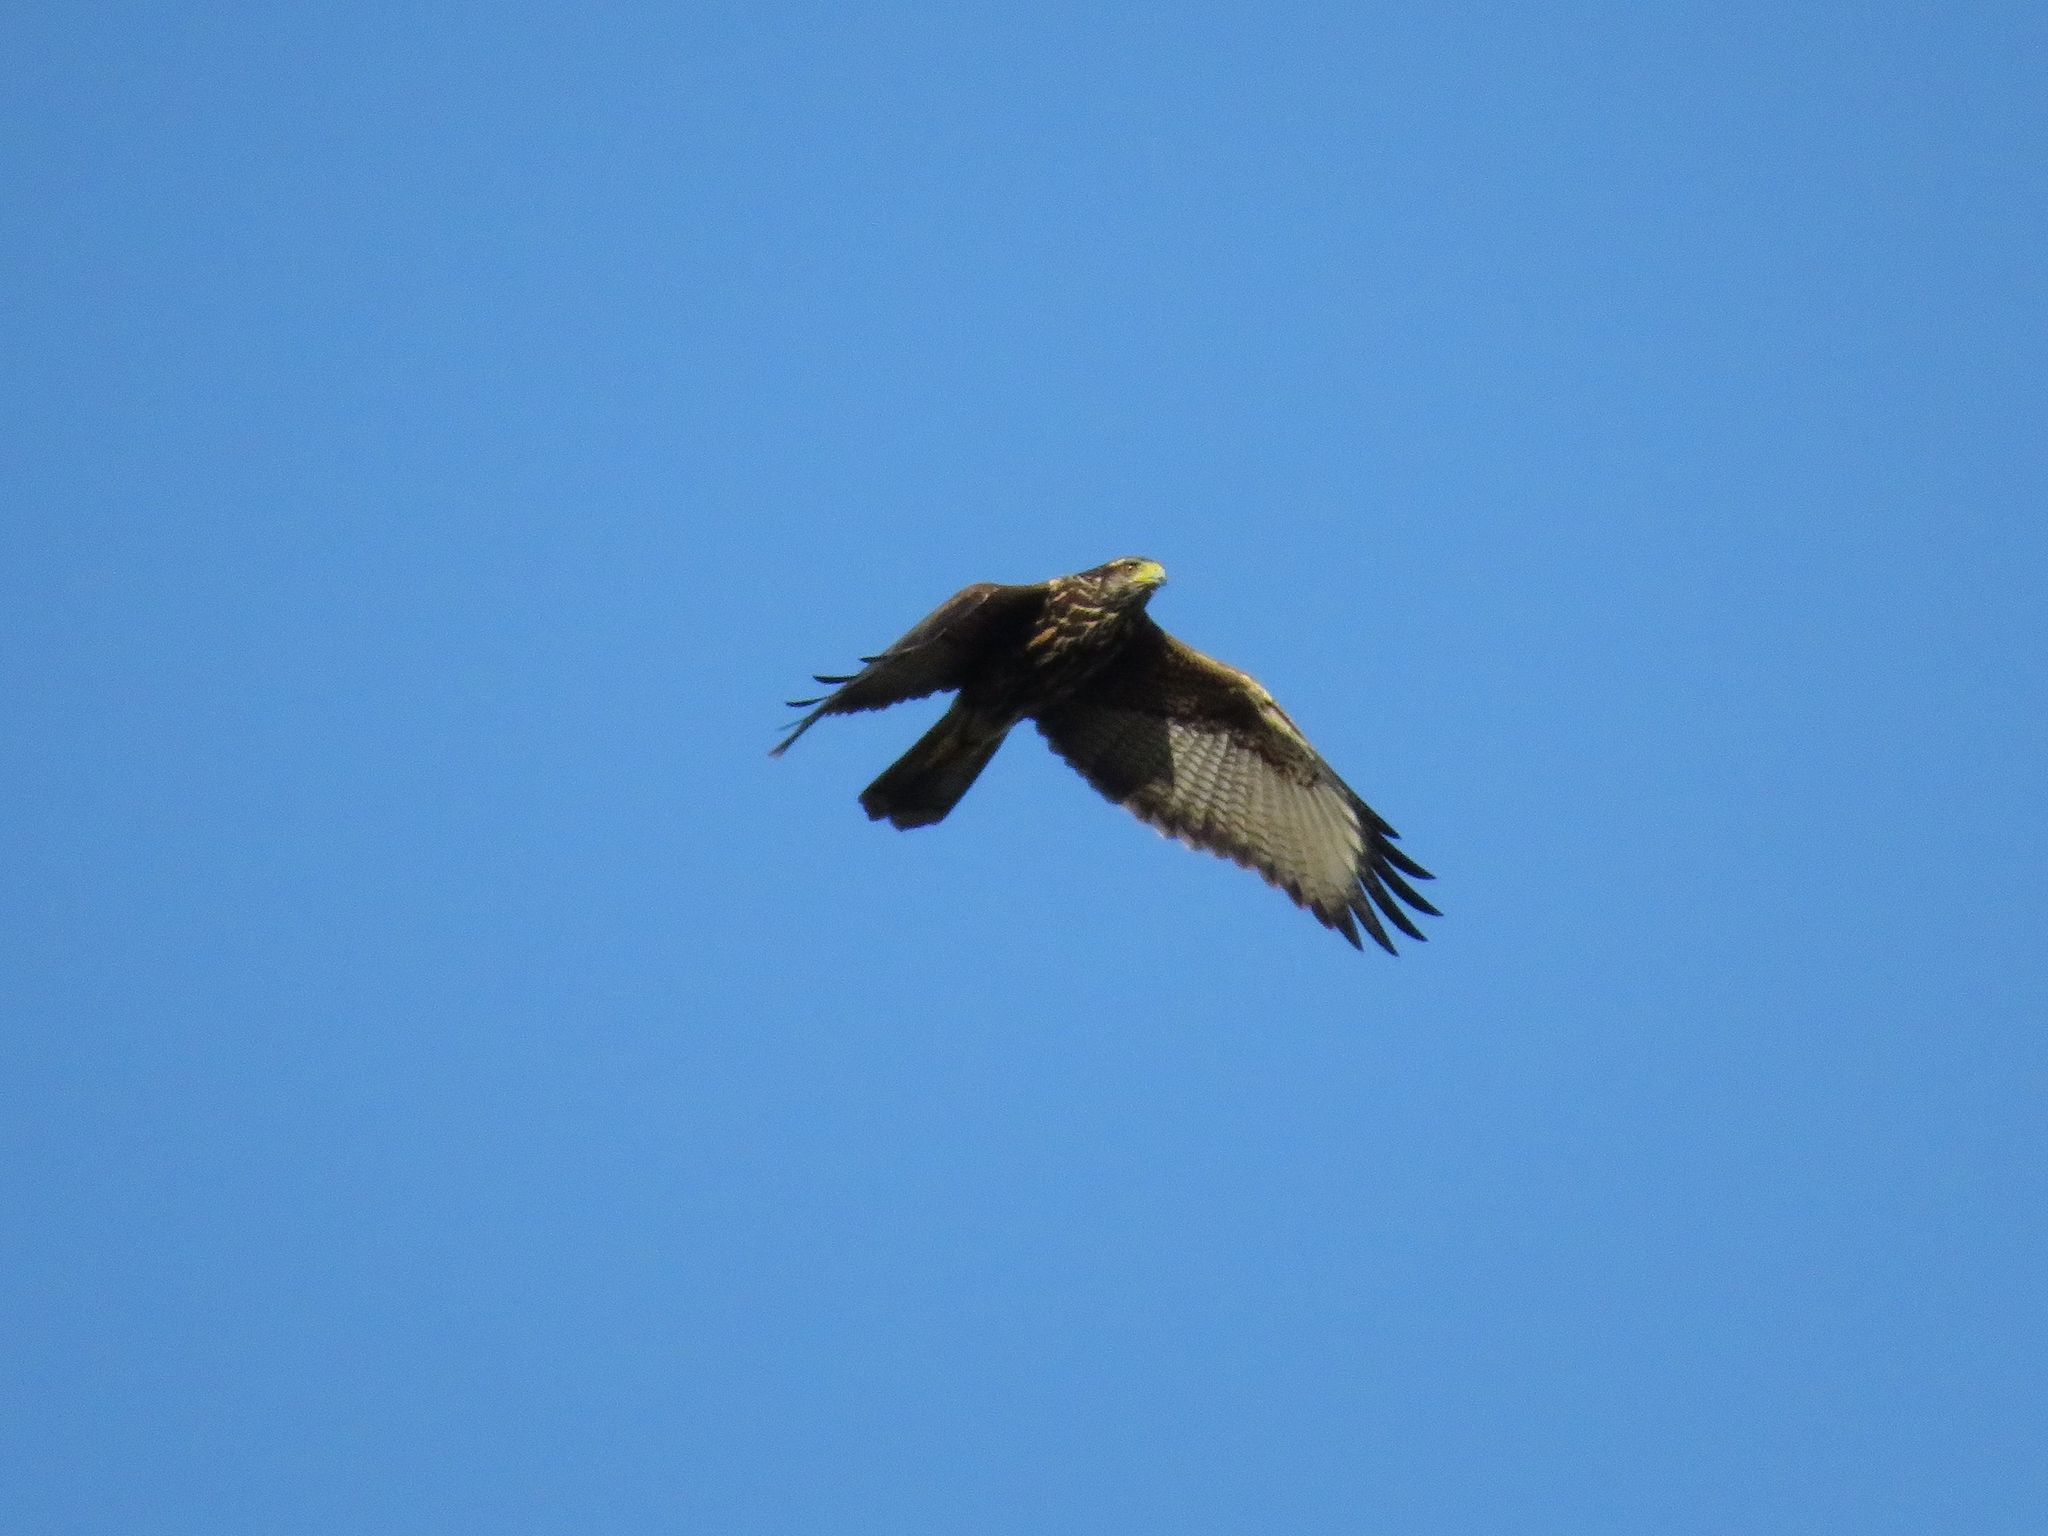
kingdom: Animalia
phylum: Chordata
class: Aves
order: Accipitriformes
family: Accipitridae
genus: Parabuteo
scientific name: Parabuteo unicinctus
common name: Harris's hawk
